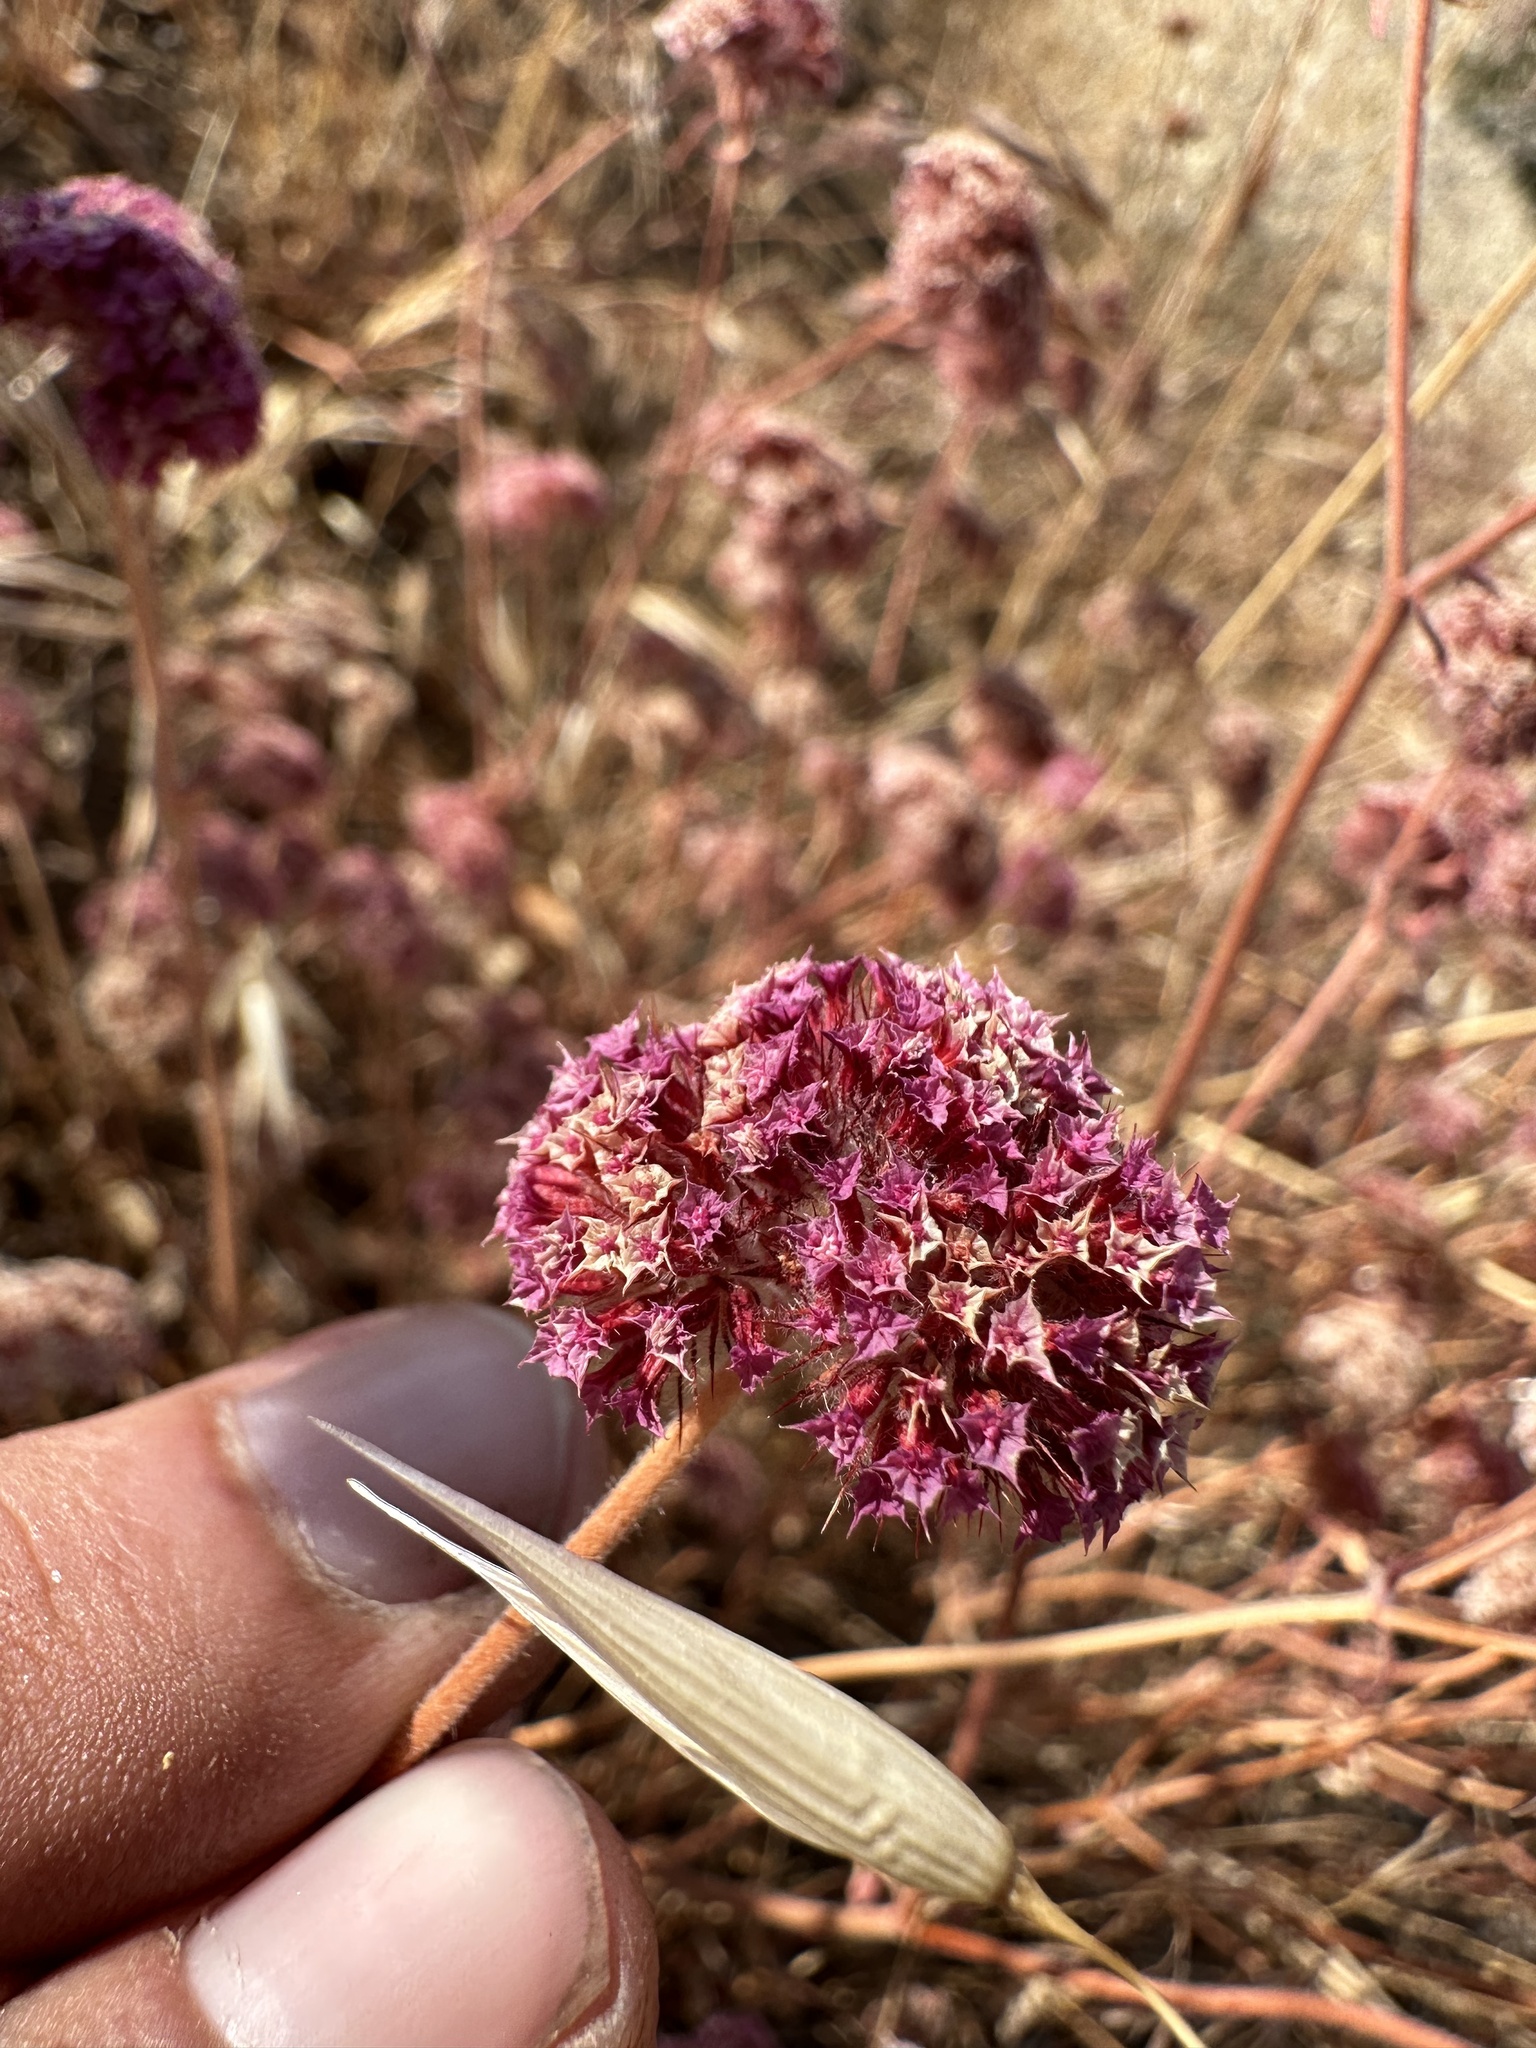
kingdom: Plantae
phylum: Tracheophyta
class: Magnoliopsida
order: Caryophyllales
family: Polygonaceae
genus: Chorizanthe
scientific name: Chorizanthe douglasii
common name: Douglas's spineflower
